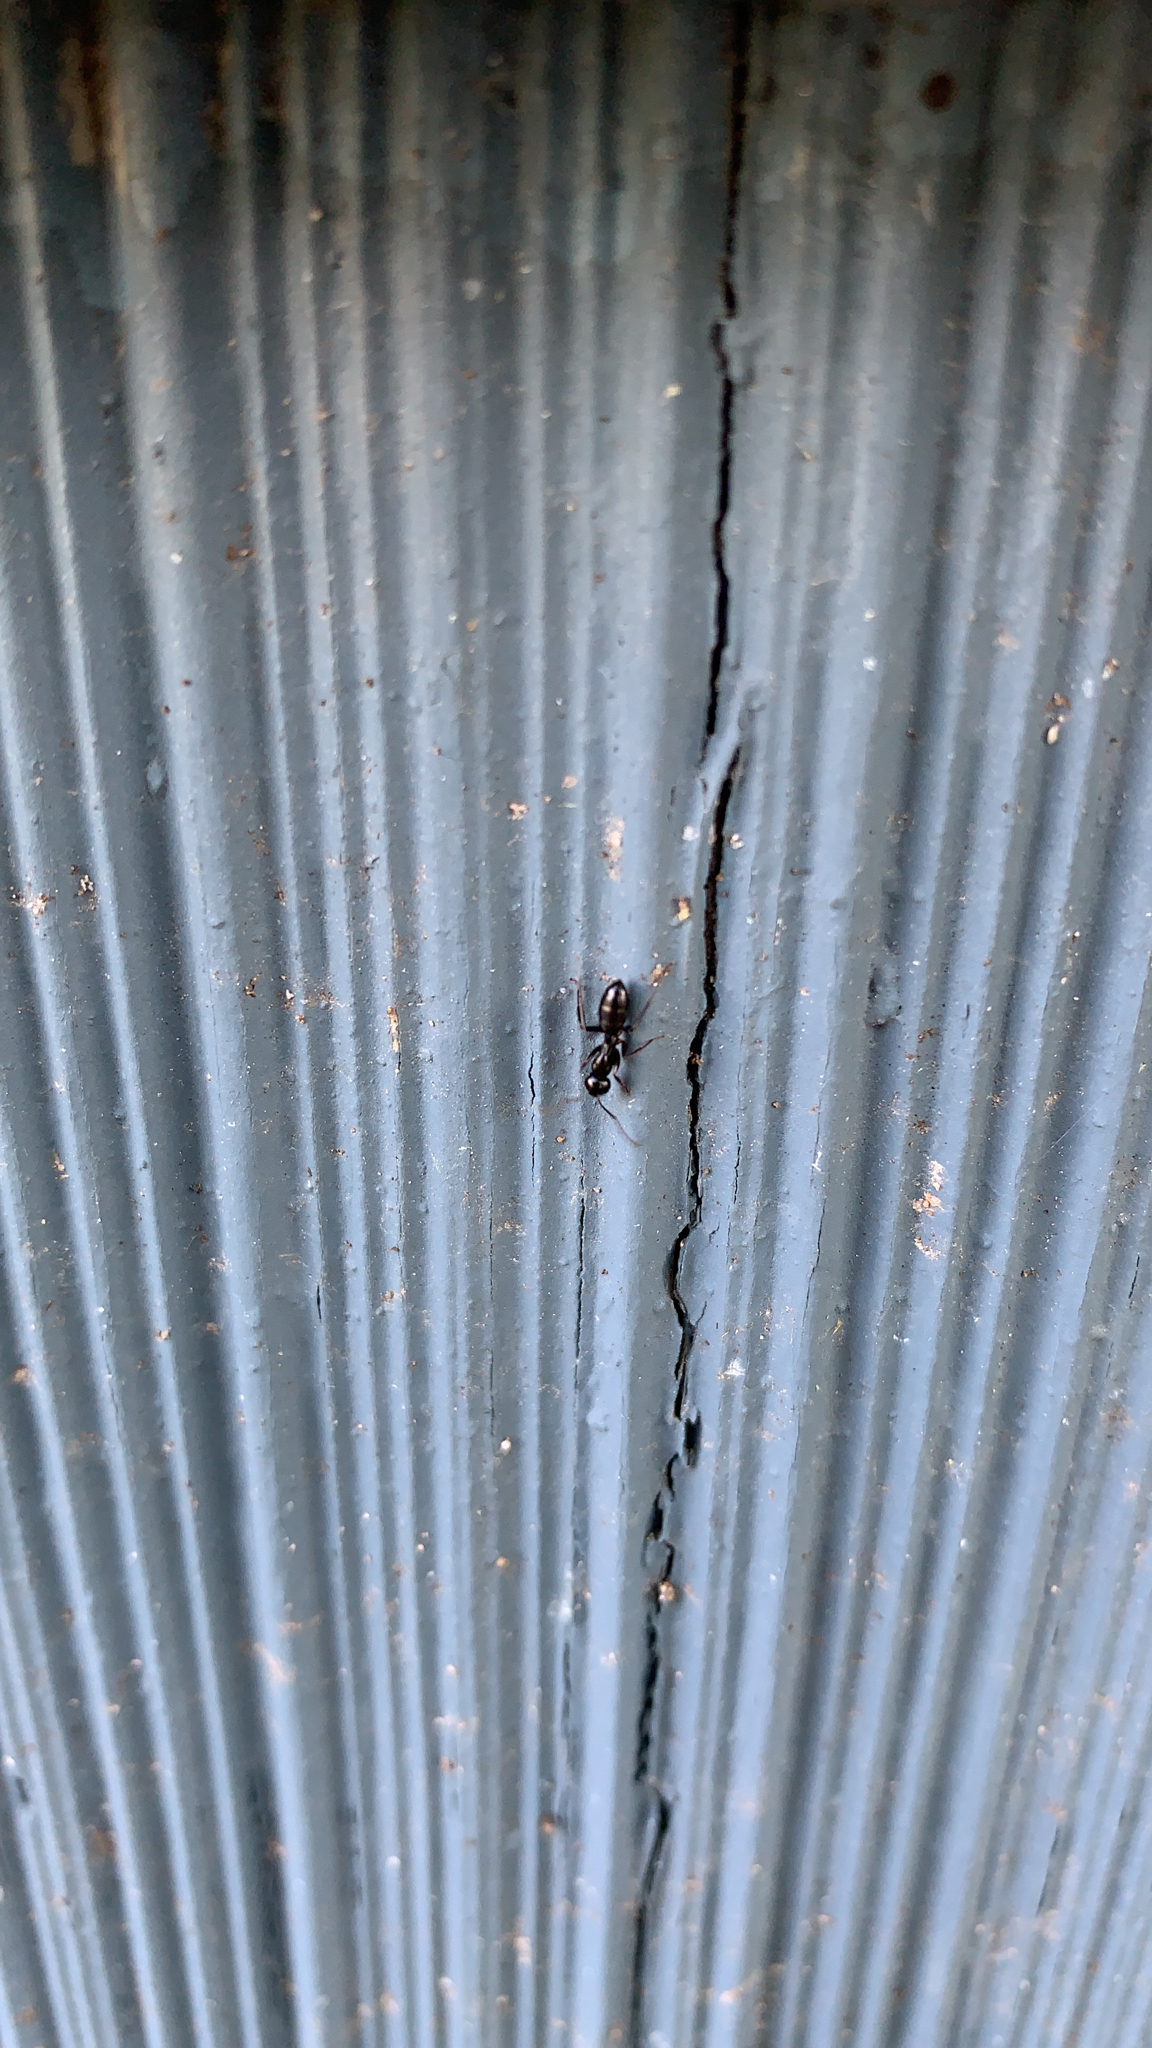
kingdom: Animalia
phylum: Arthropoda
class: Insecta
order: Hymenoptera
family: Formicidae
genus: Myrmentoma
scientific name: Myrmentoma
